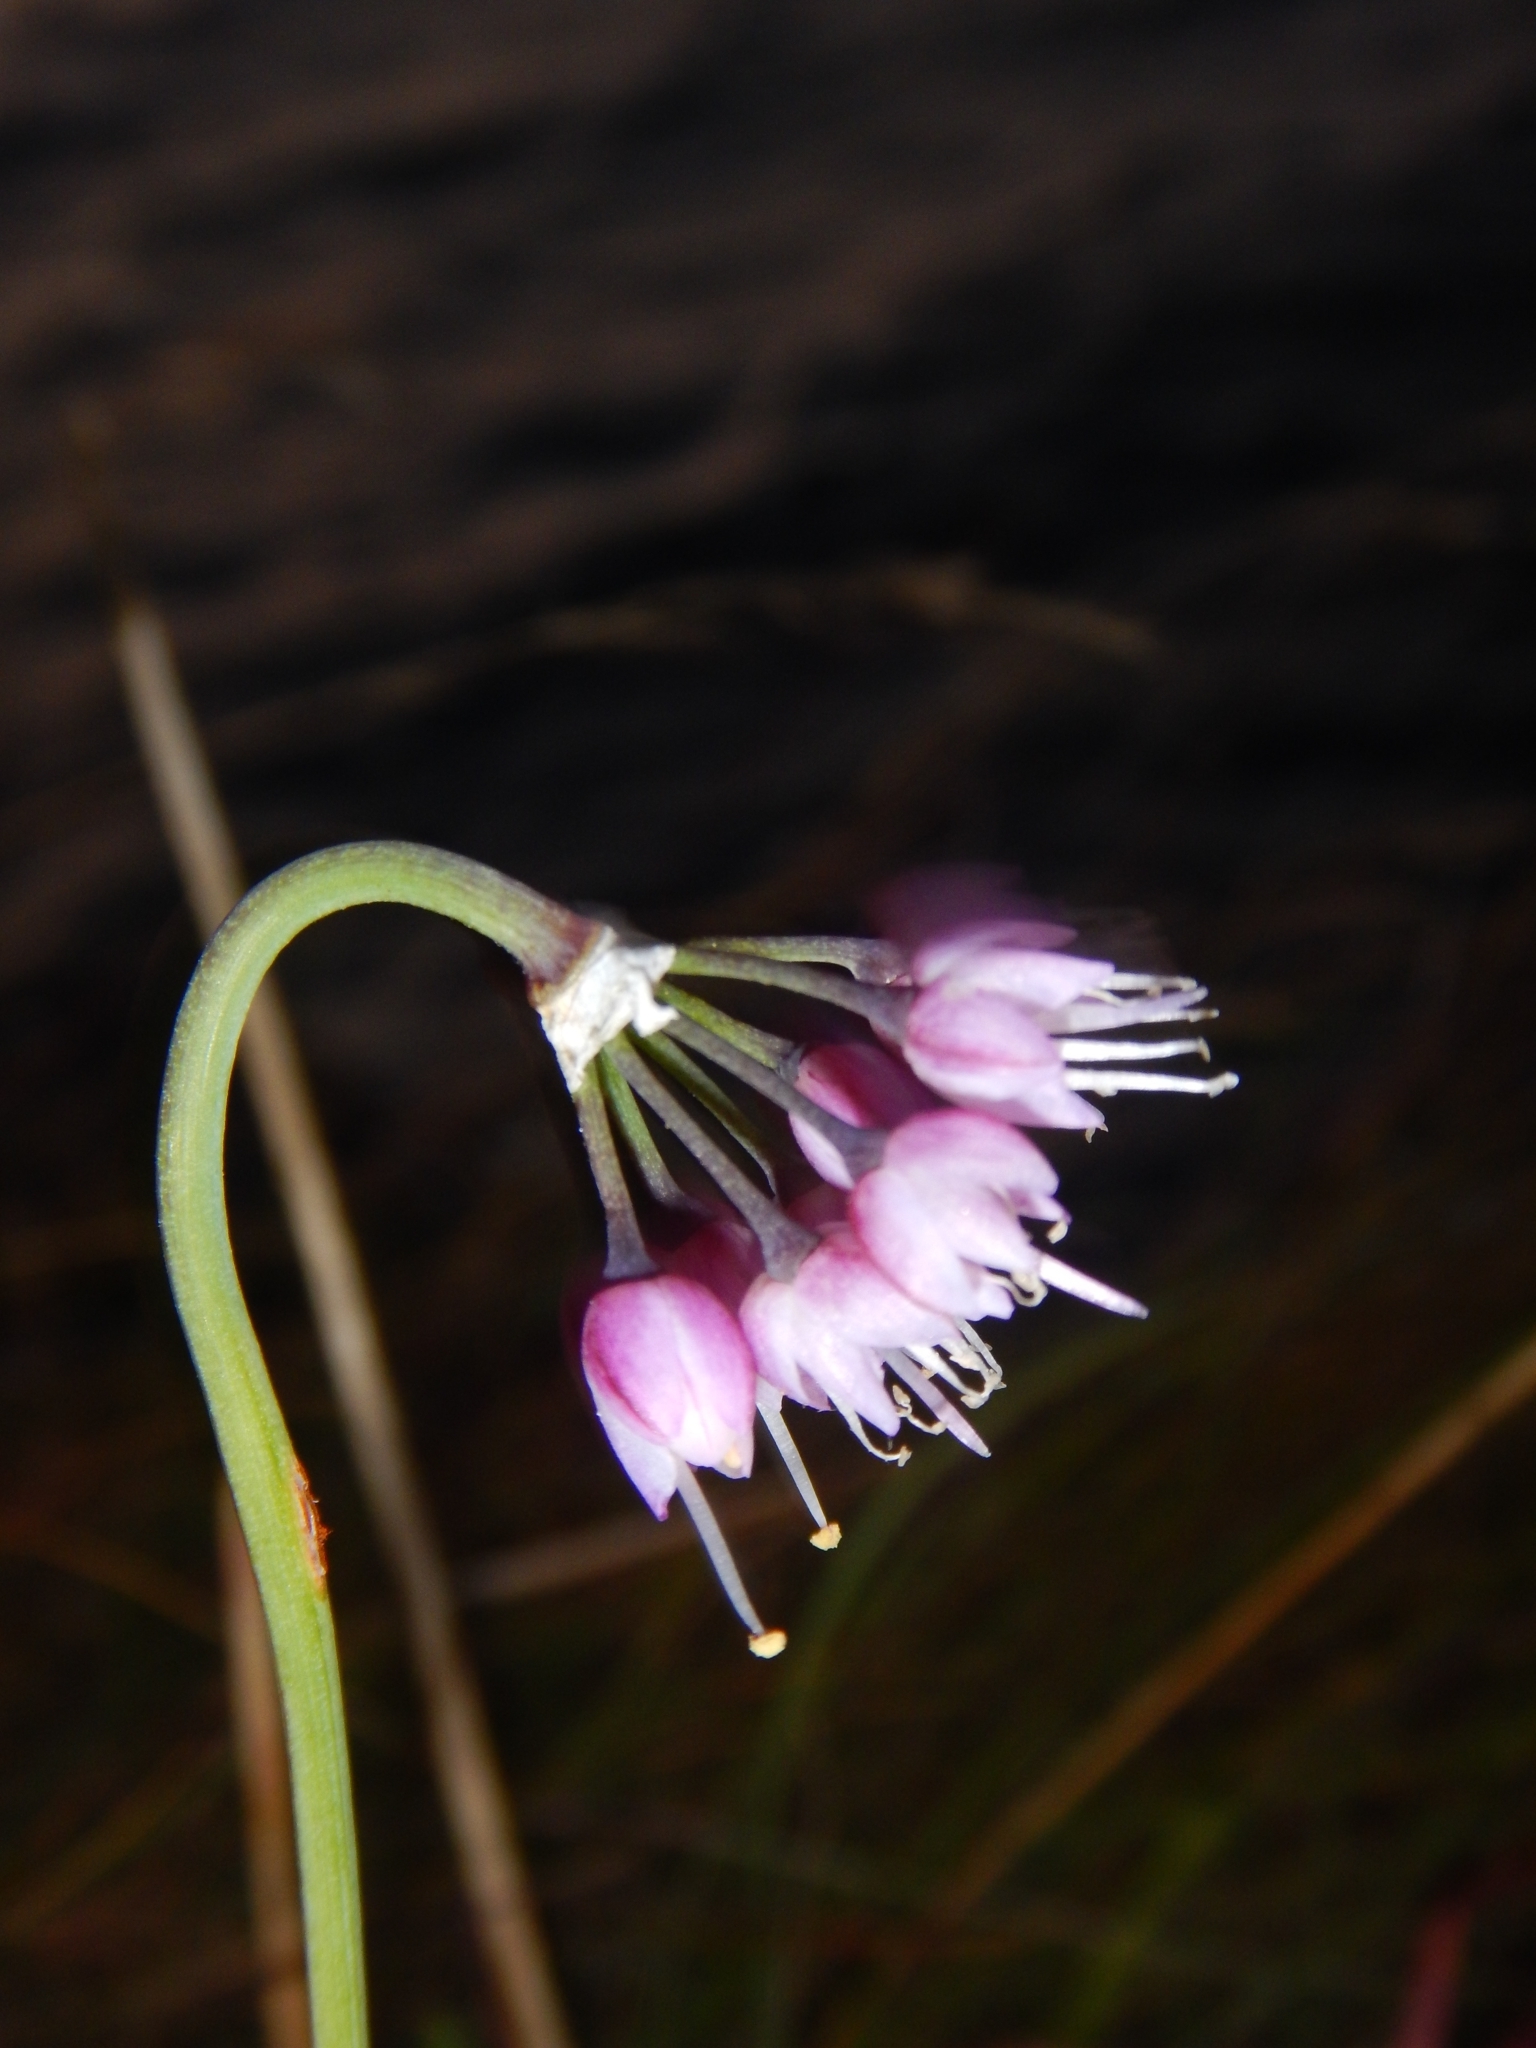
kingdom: Plantae
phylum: Tracheophyta
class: Liliopsida
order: Asparagales
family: Amaryllidaceae
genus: Allium
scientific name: Allium cernuum
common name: Nodding onion
